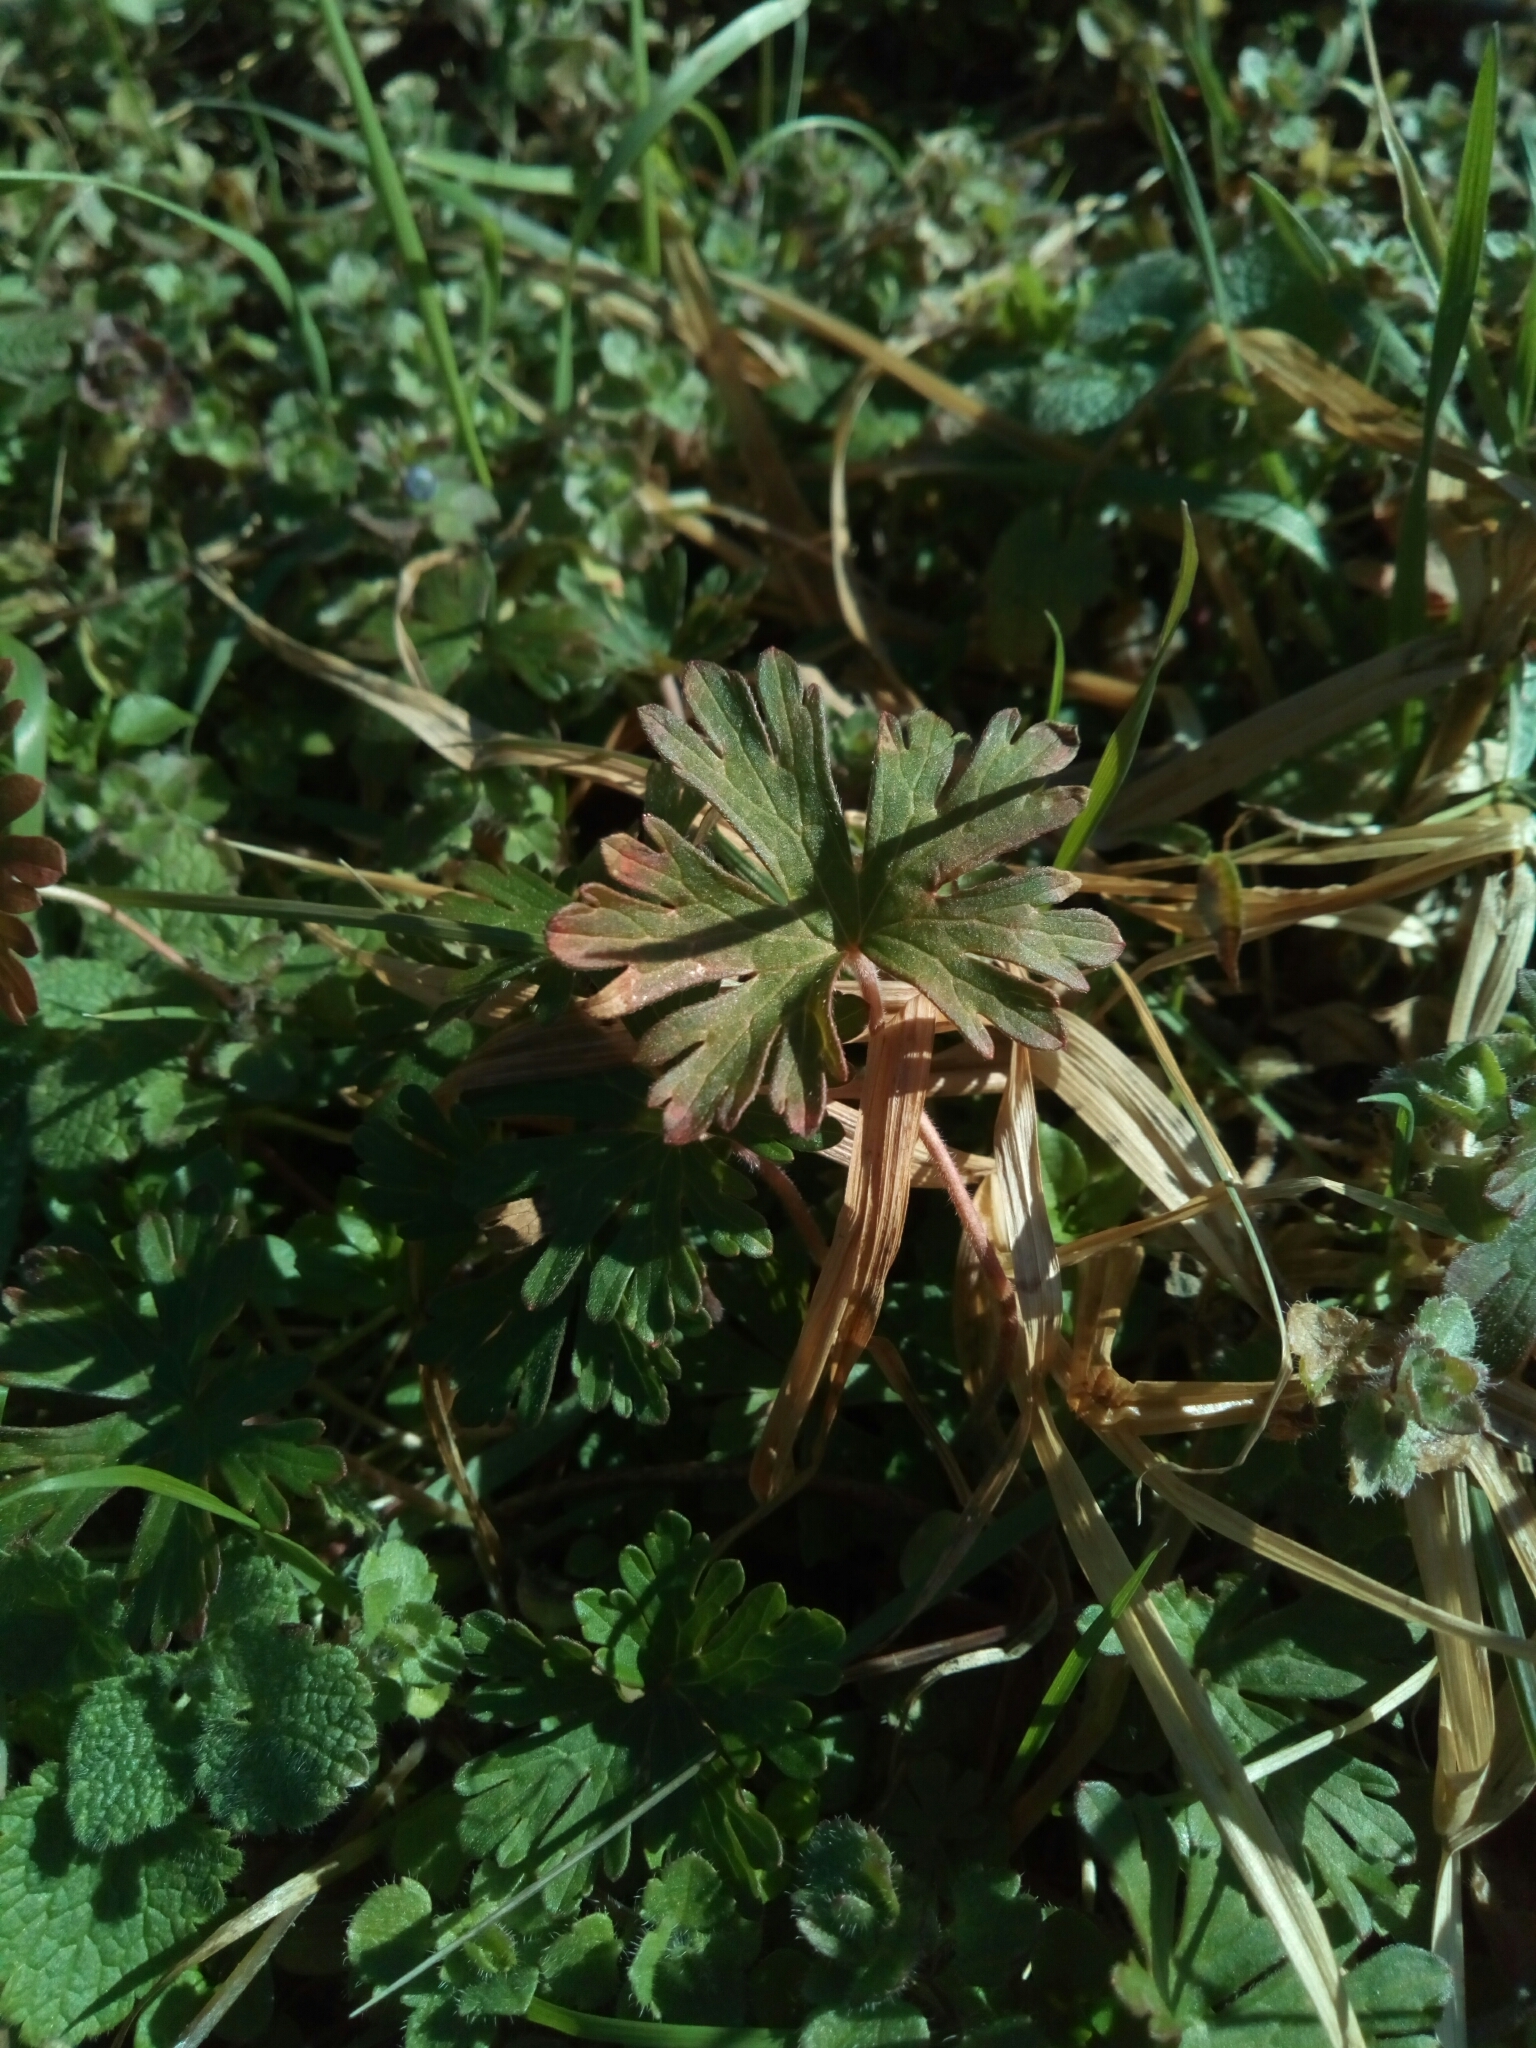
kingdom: Plantae
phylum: Tracheophyta
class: Magnoliopsida
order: Geraniales
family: Geraniaceae
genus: Geranium
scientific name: Geranium carolinianum
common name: Carolina crane's-bill
